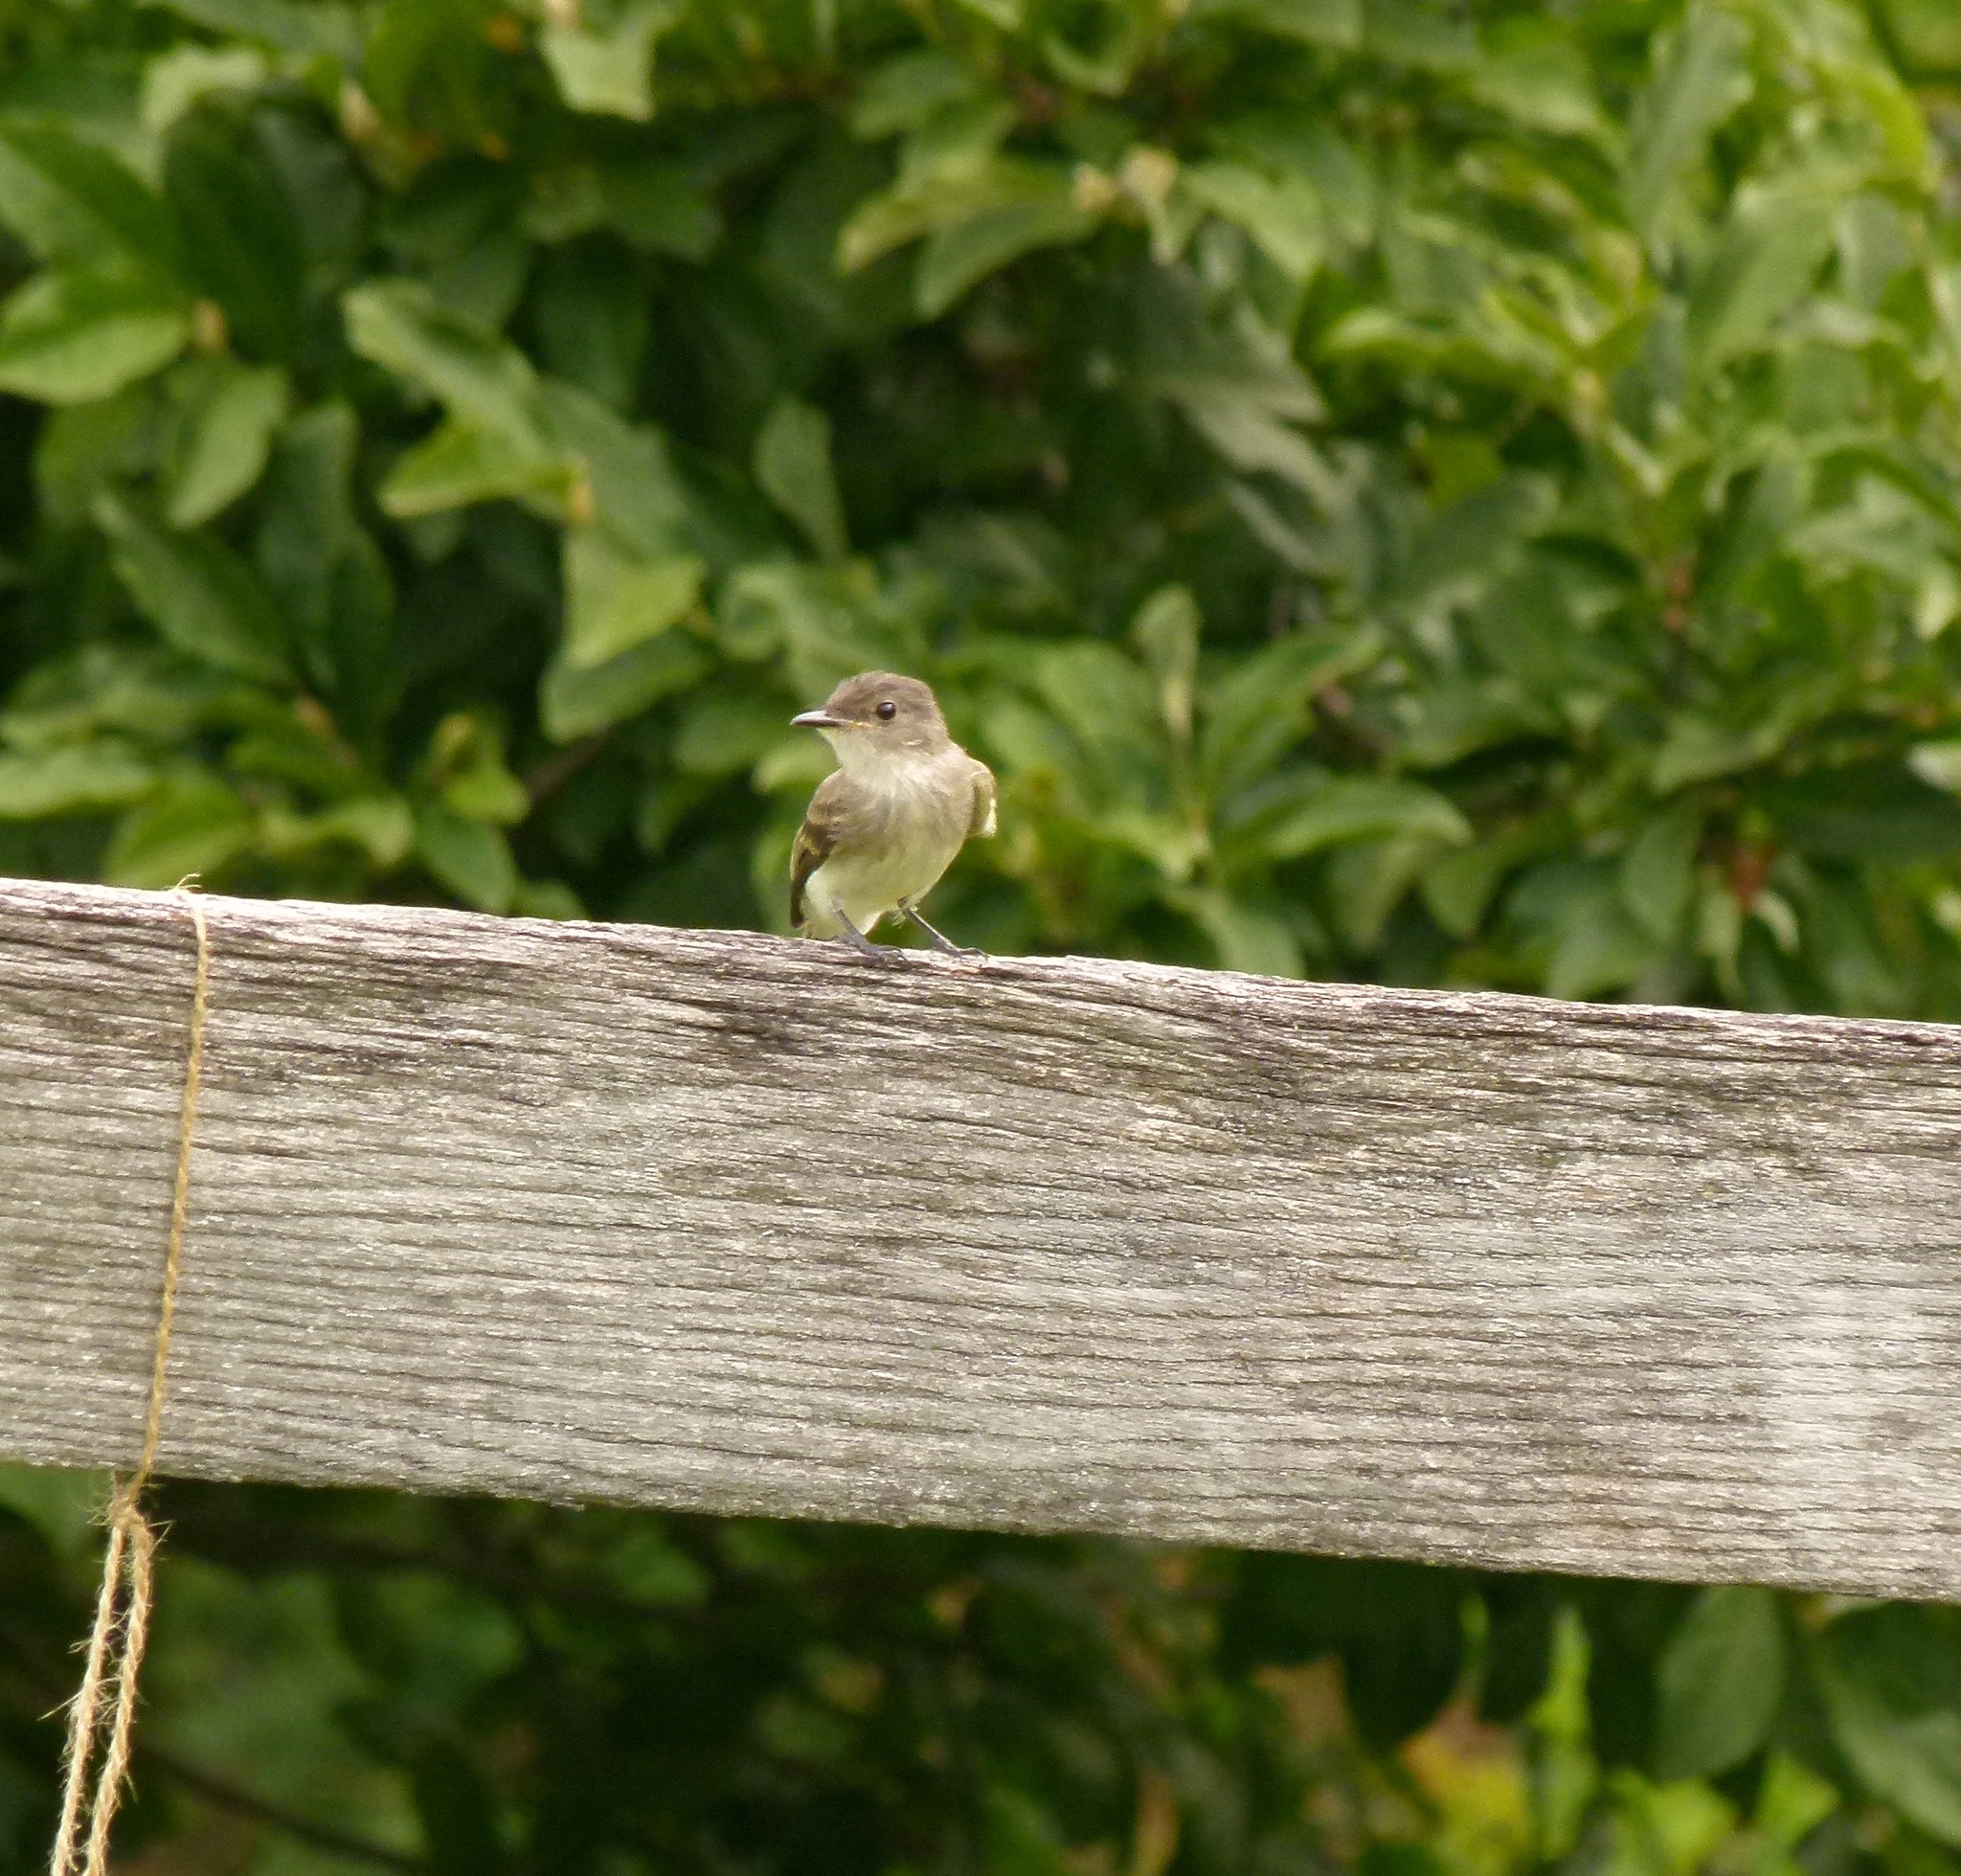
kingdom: Animalia
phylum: Chordata
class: Aves
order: Passeriformes
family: Tyrannidae
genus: Sayornis
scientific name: Sayornis phoebe
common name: Eastern phoebe
